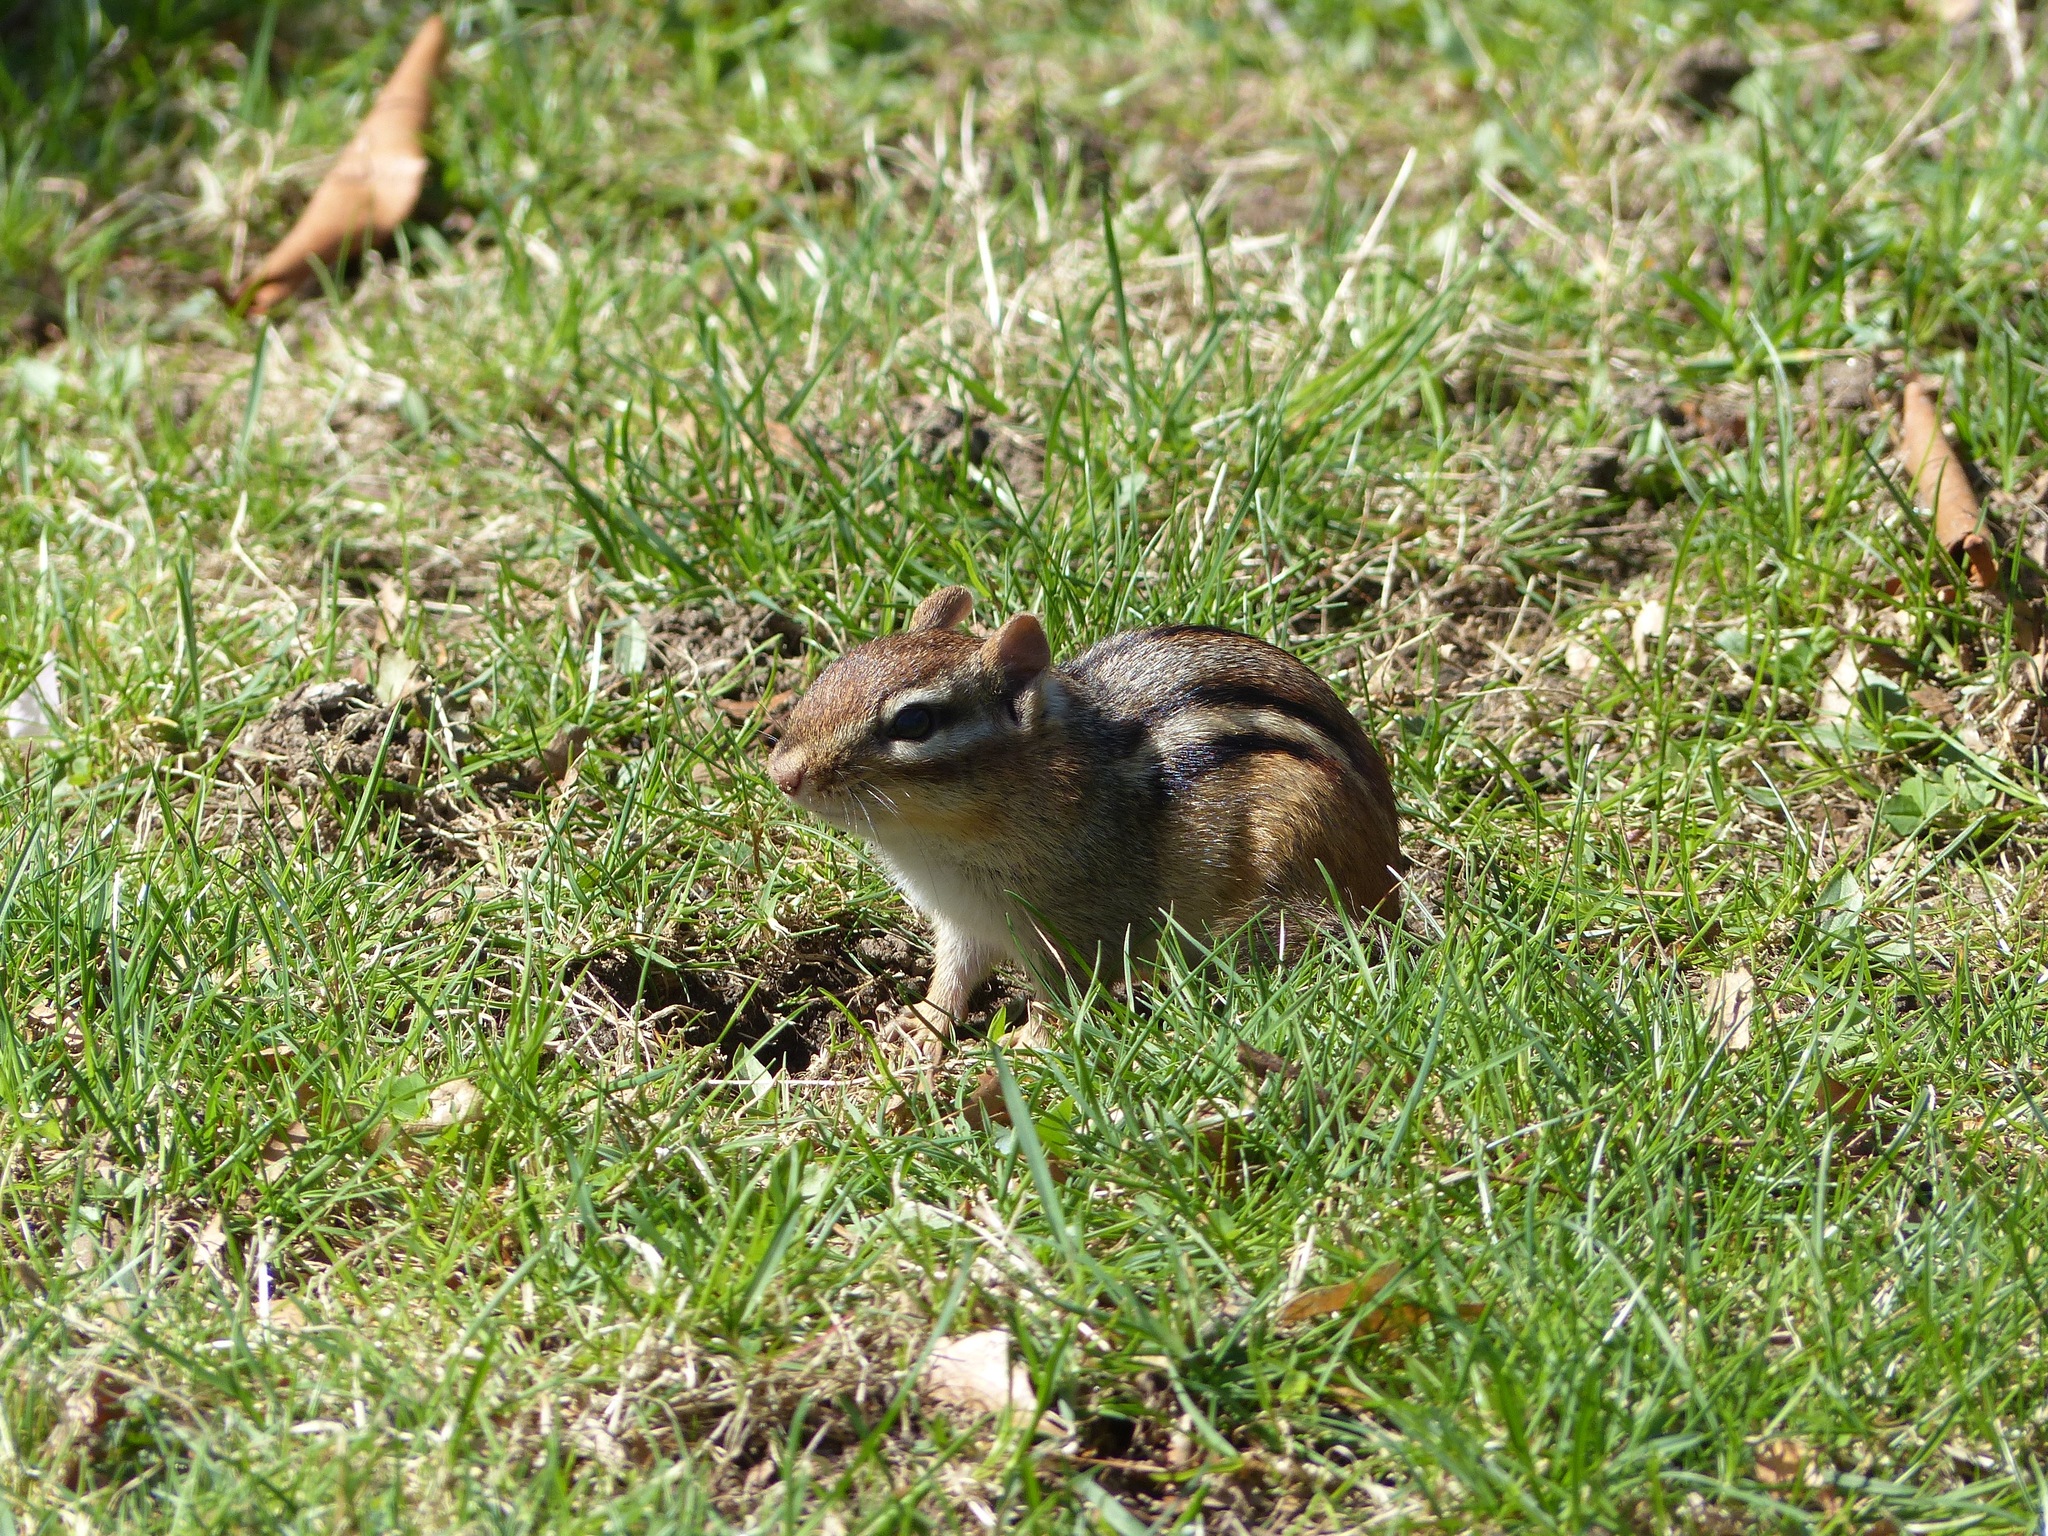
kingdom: Animalia
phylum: Chordata
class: Mammalia
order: Rodentia
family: Sciuridae
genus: Tamias
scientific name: Tamias striatus
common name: Eastern chipmunk
